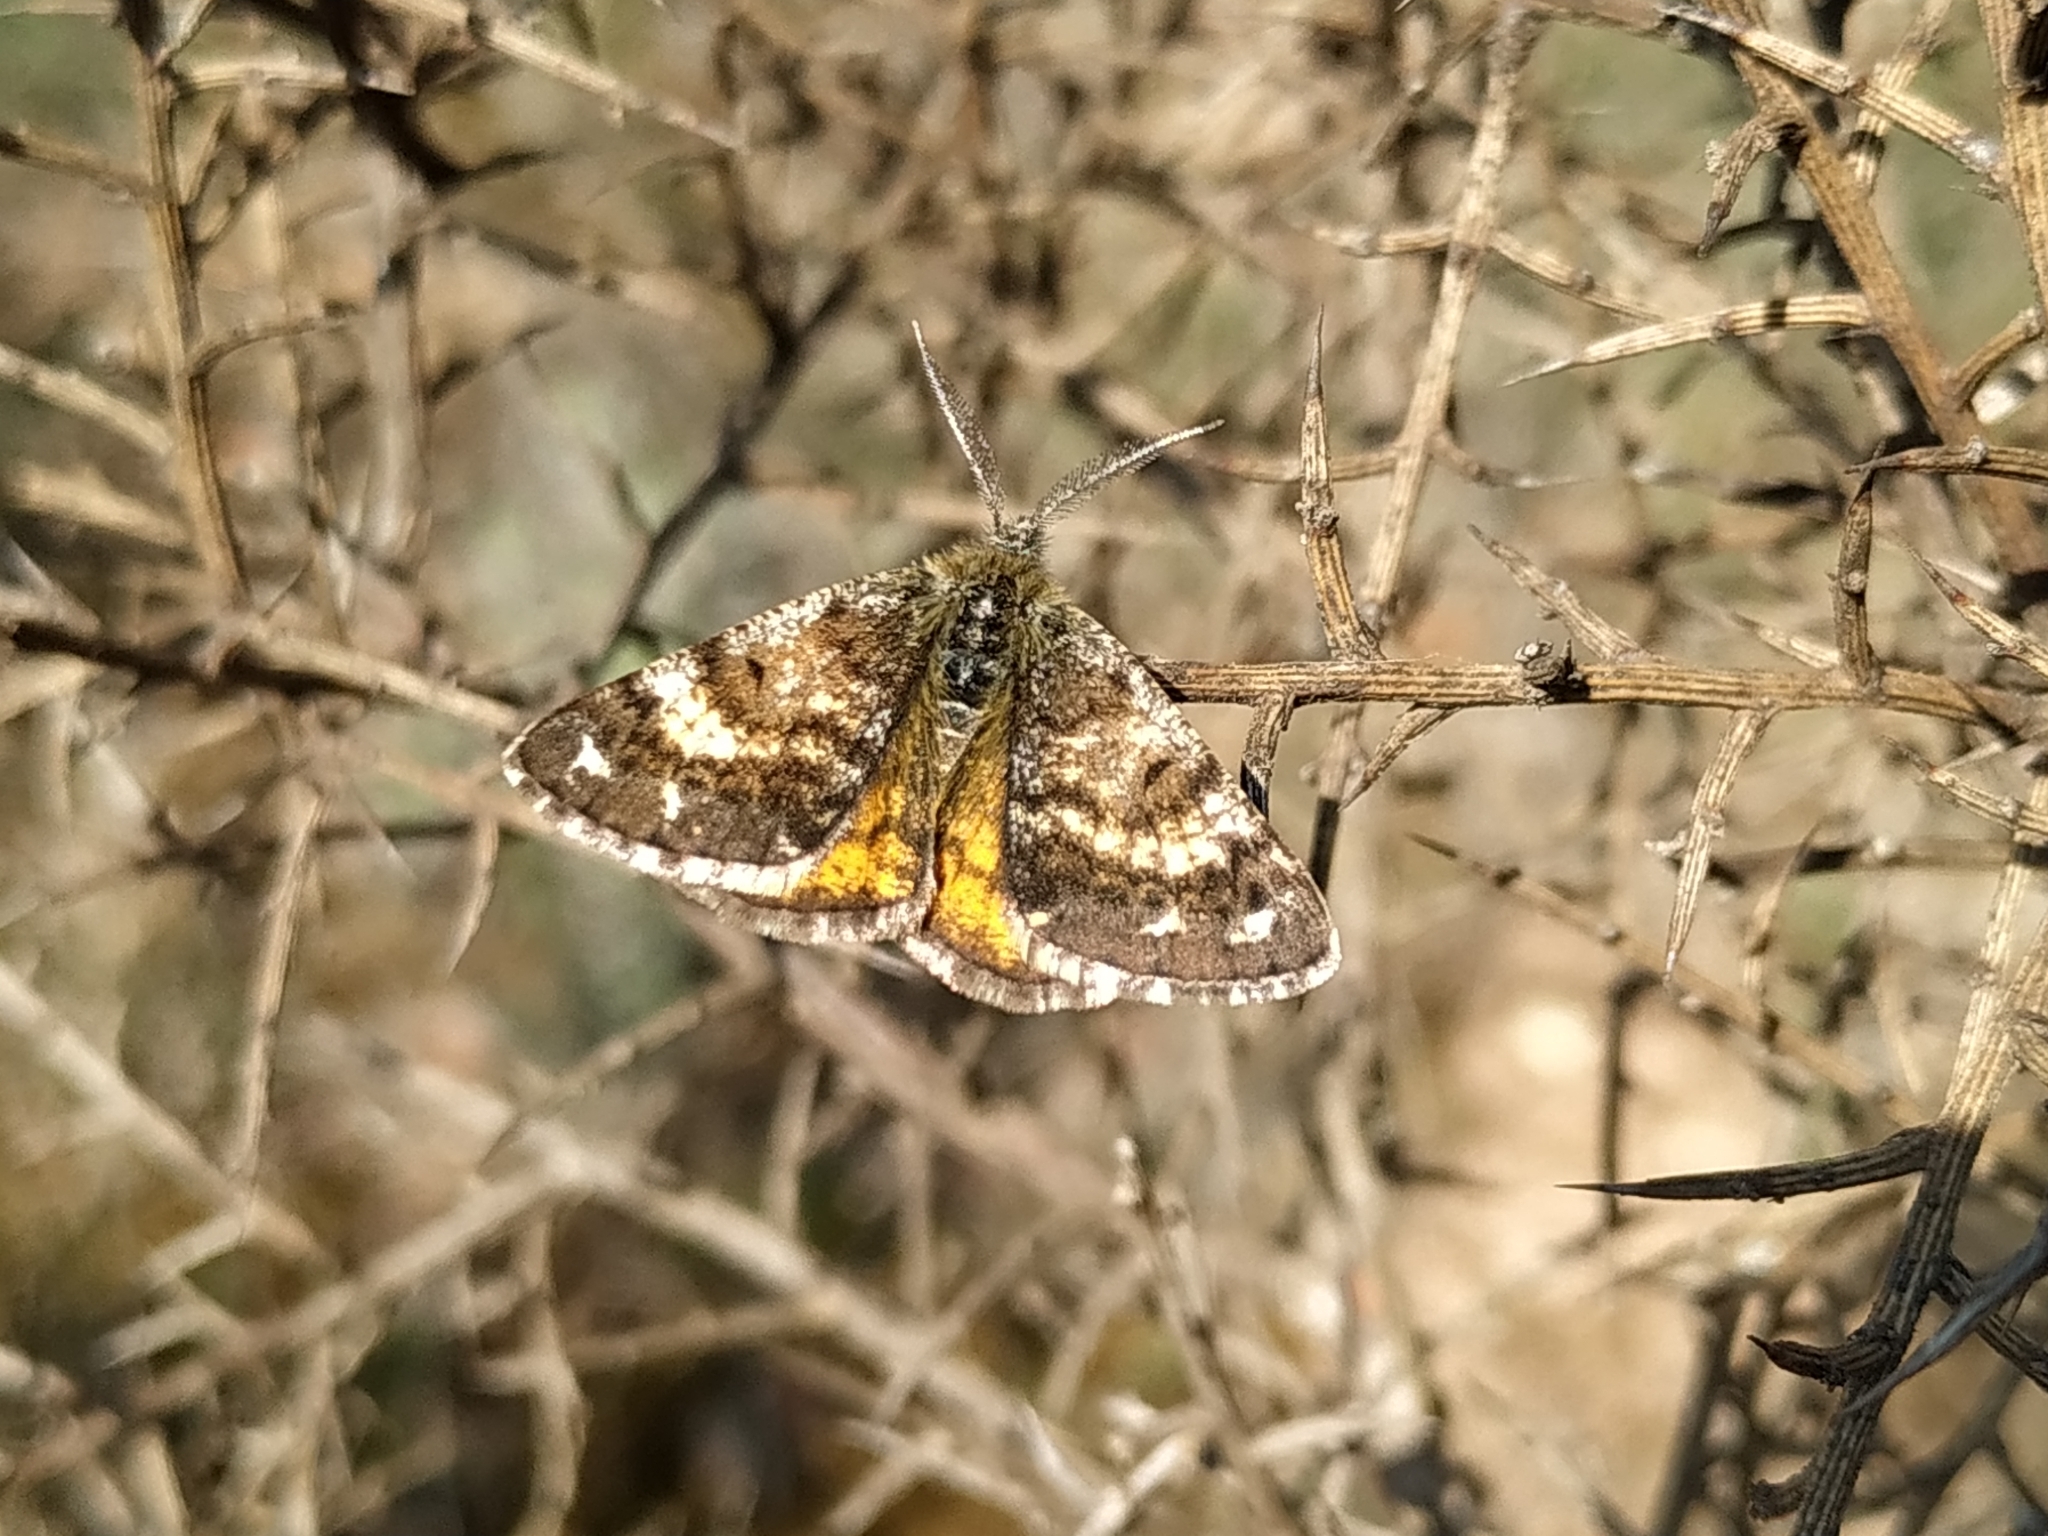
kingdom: Animalia
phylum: Arthropoda
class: Insecta
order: Lepidoptera
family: Geometridae
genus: Isturgia
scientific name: Isturgia famula
